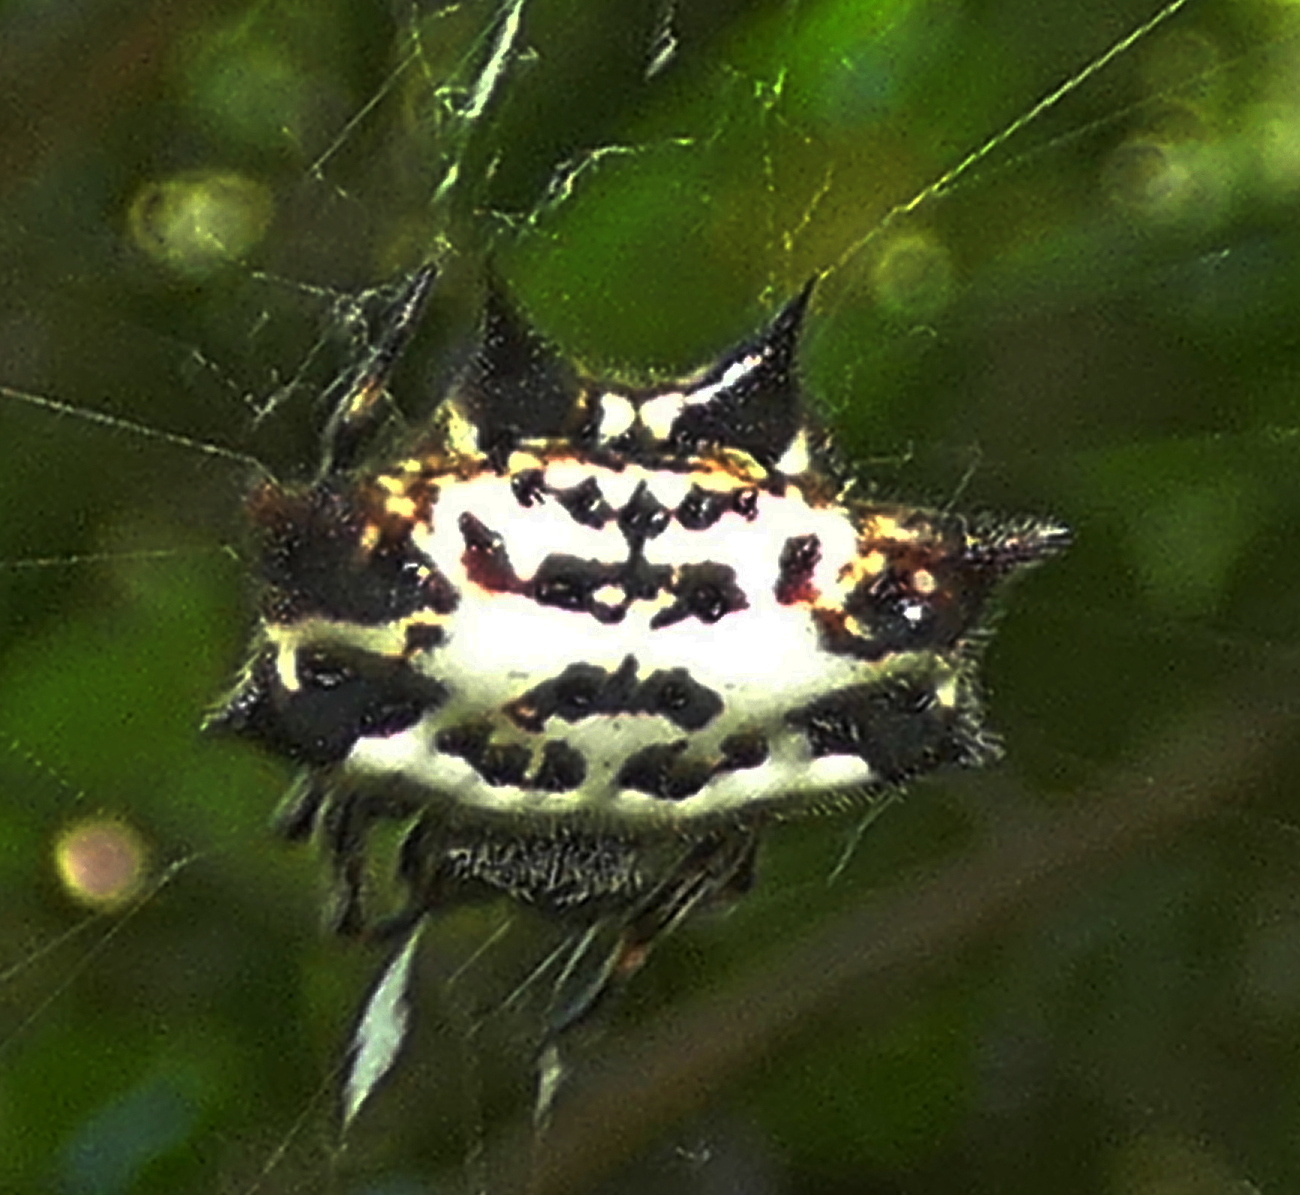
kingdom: Animalia
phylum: Arthropoda
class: Arachnida
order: Araneae
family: Araneidae
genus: Gasteracantha
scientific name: Gasteracantha cancriformis
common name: Orb weavers
